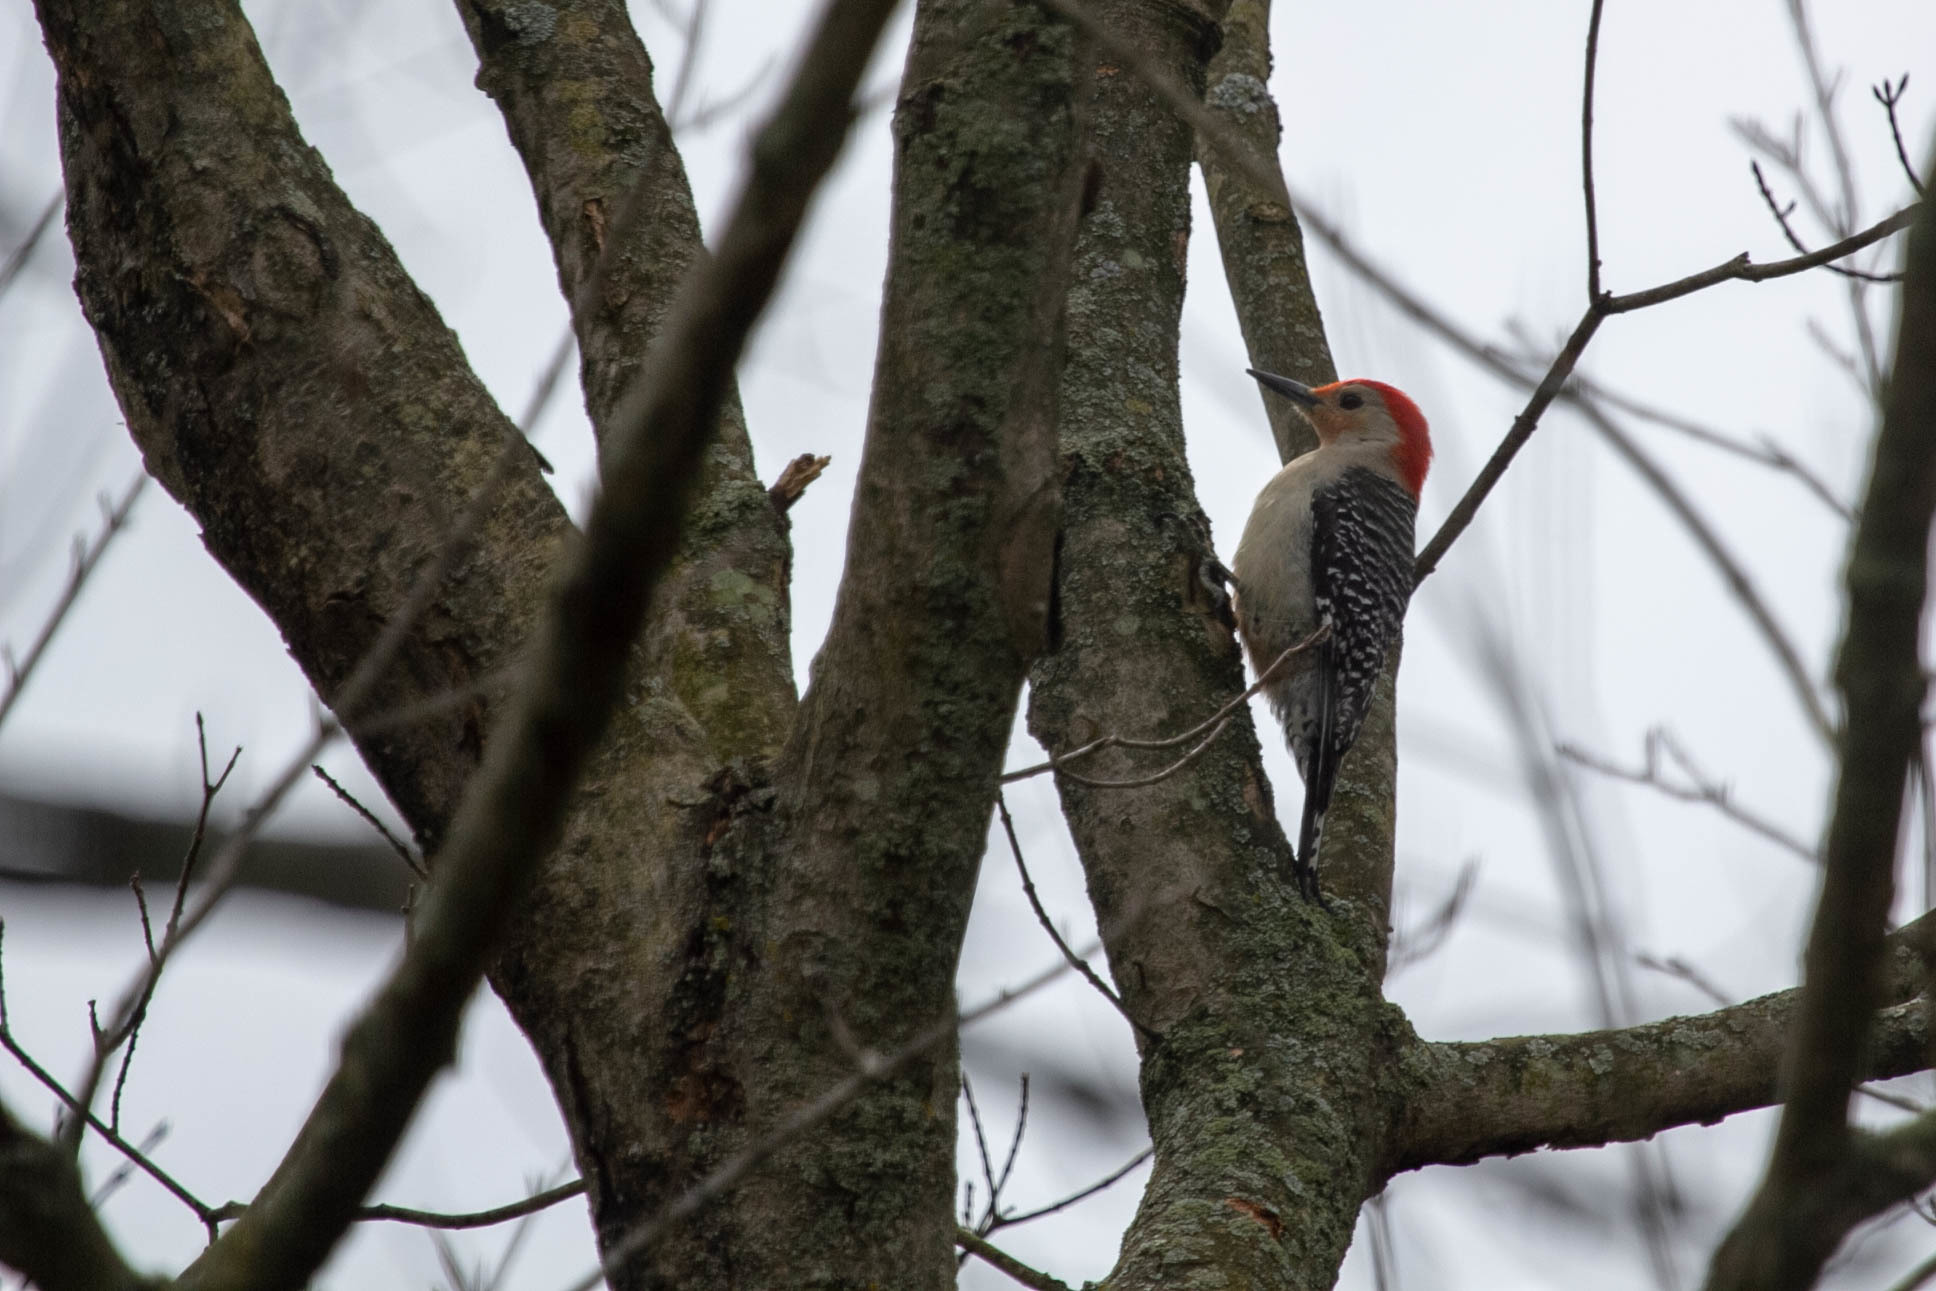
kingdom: Animalia
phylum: Chordata
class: Aves
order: Piciformes
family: Picidae
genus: Melanerpes
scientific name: Melanerpes carolinus
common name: Red-bellied woodpecker
